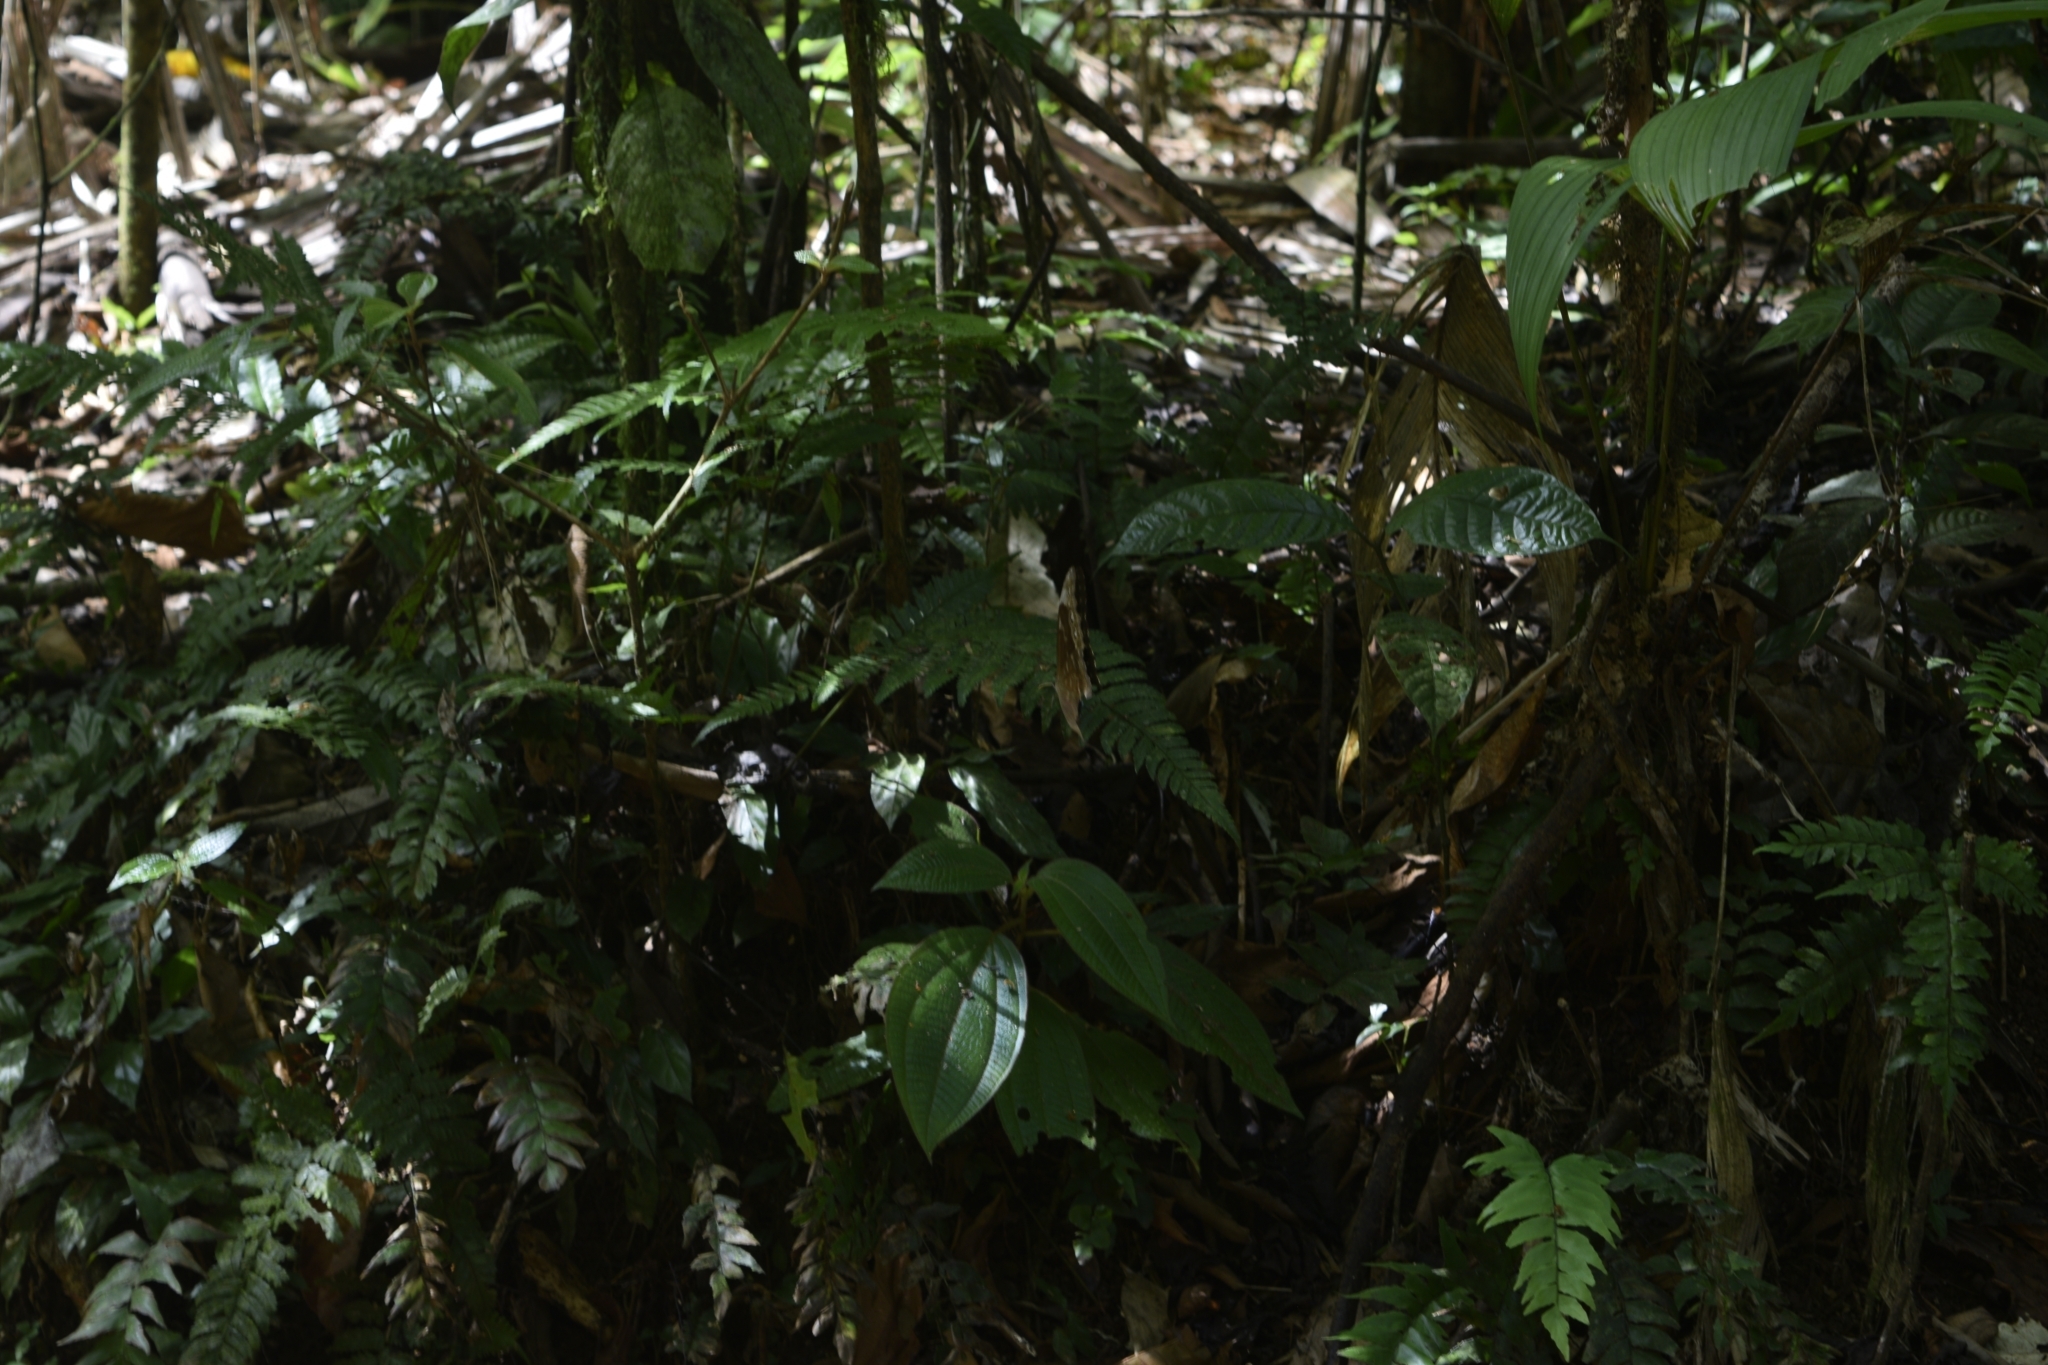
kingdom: Animalia
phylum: Arthropoda
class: Insecta
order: Lepidoptera
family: Nymphalidae
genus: Morpho
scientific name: Morpho amathonte
